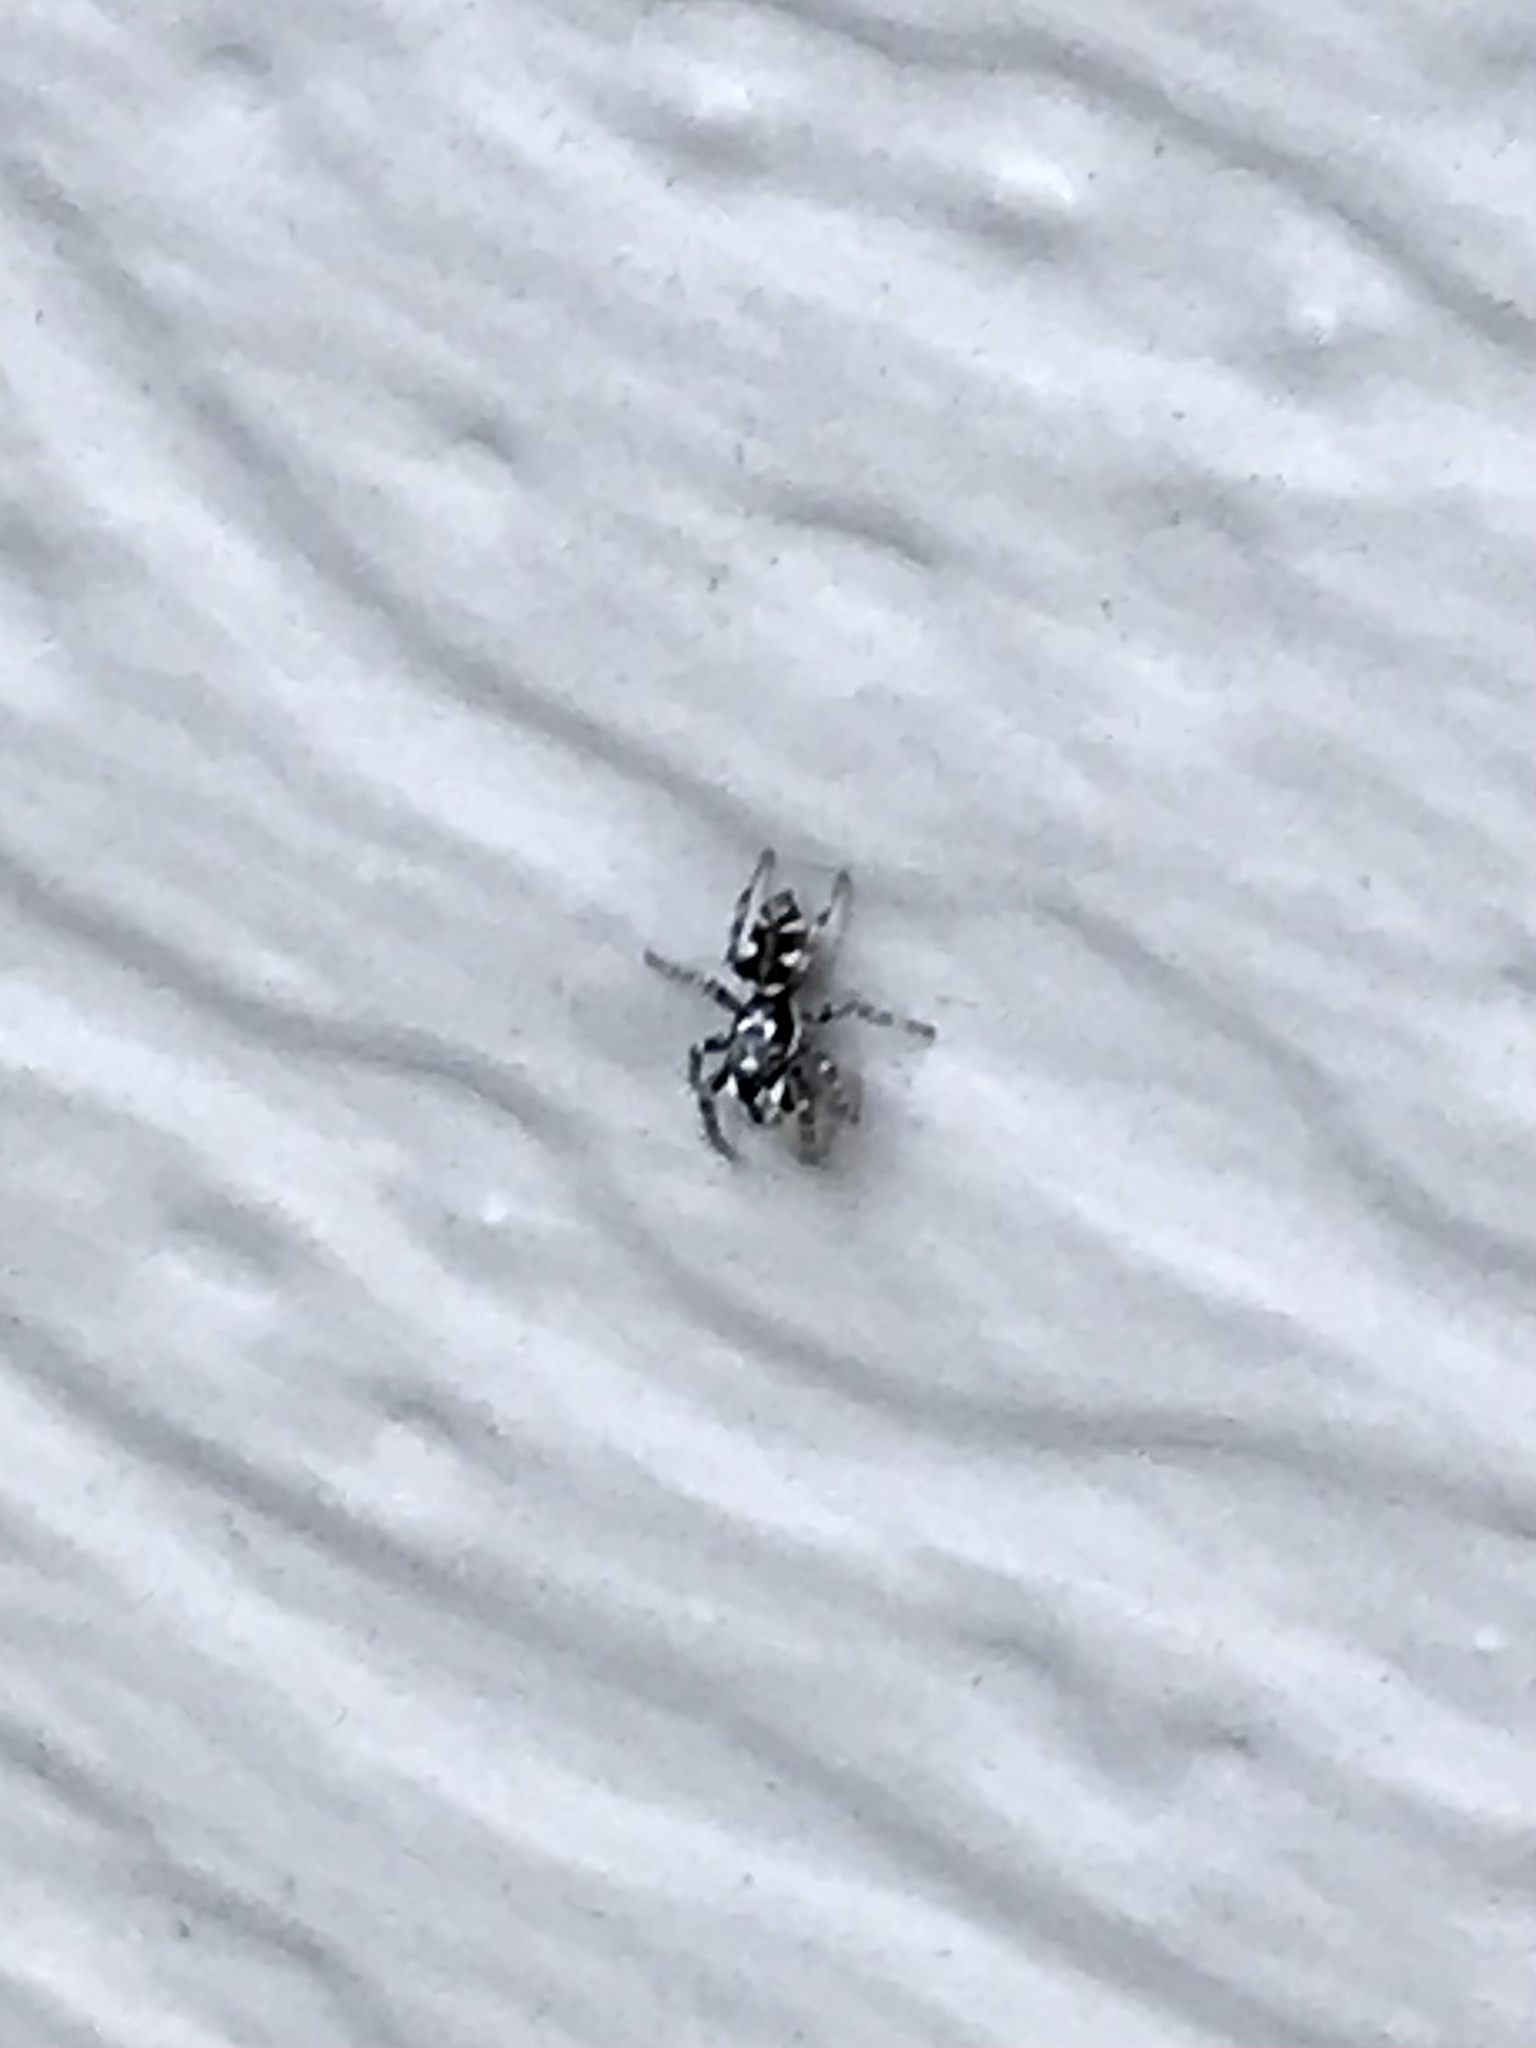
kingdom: Animalia
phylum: Arthropoda
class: Arachnida
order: Araneae
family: Salticidae
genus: Salticus
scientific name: Salticus scenicus
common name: Zebra jumper
